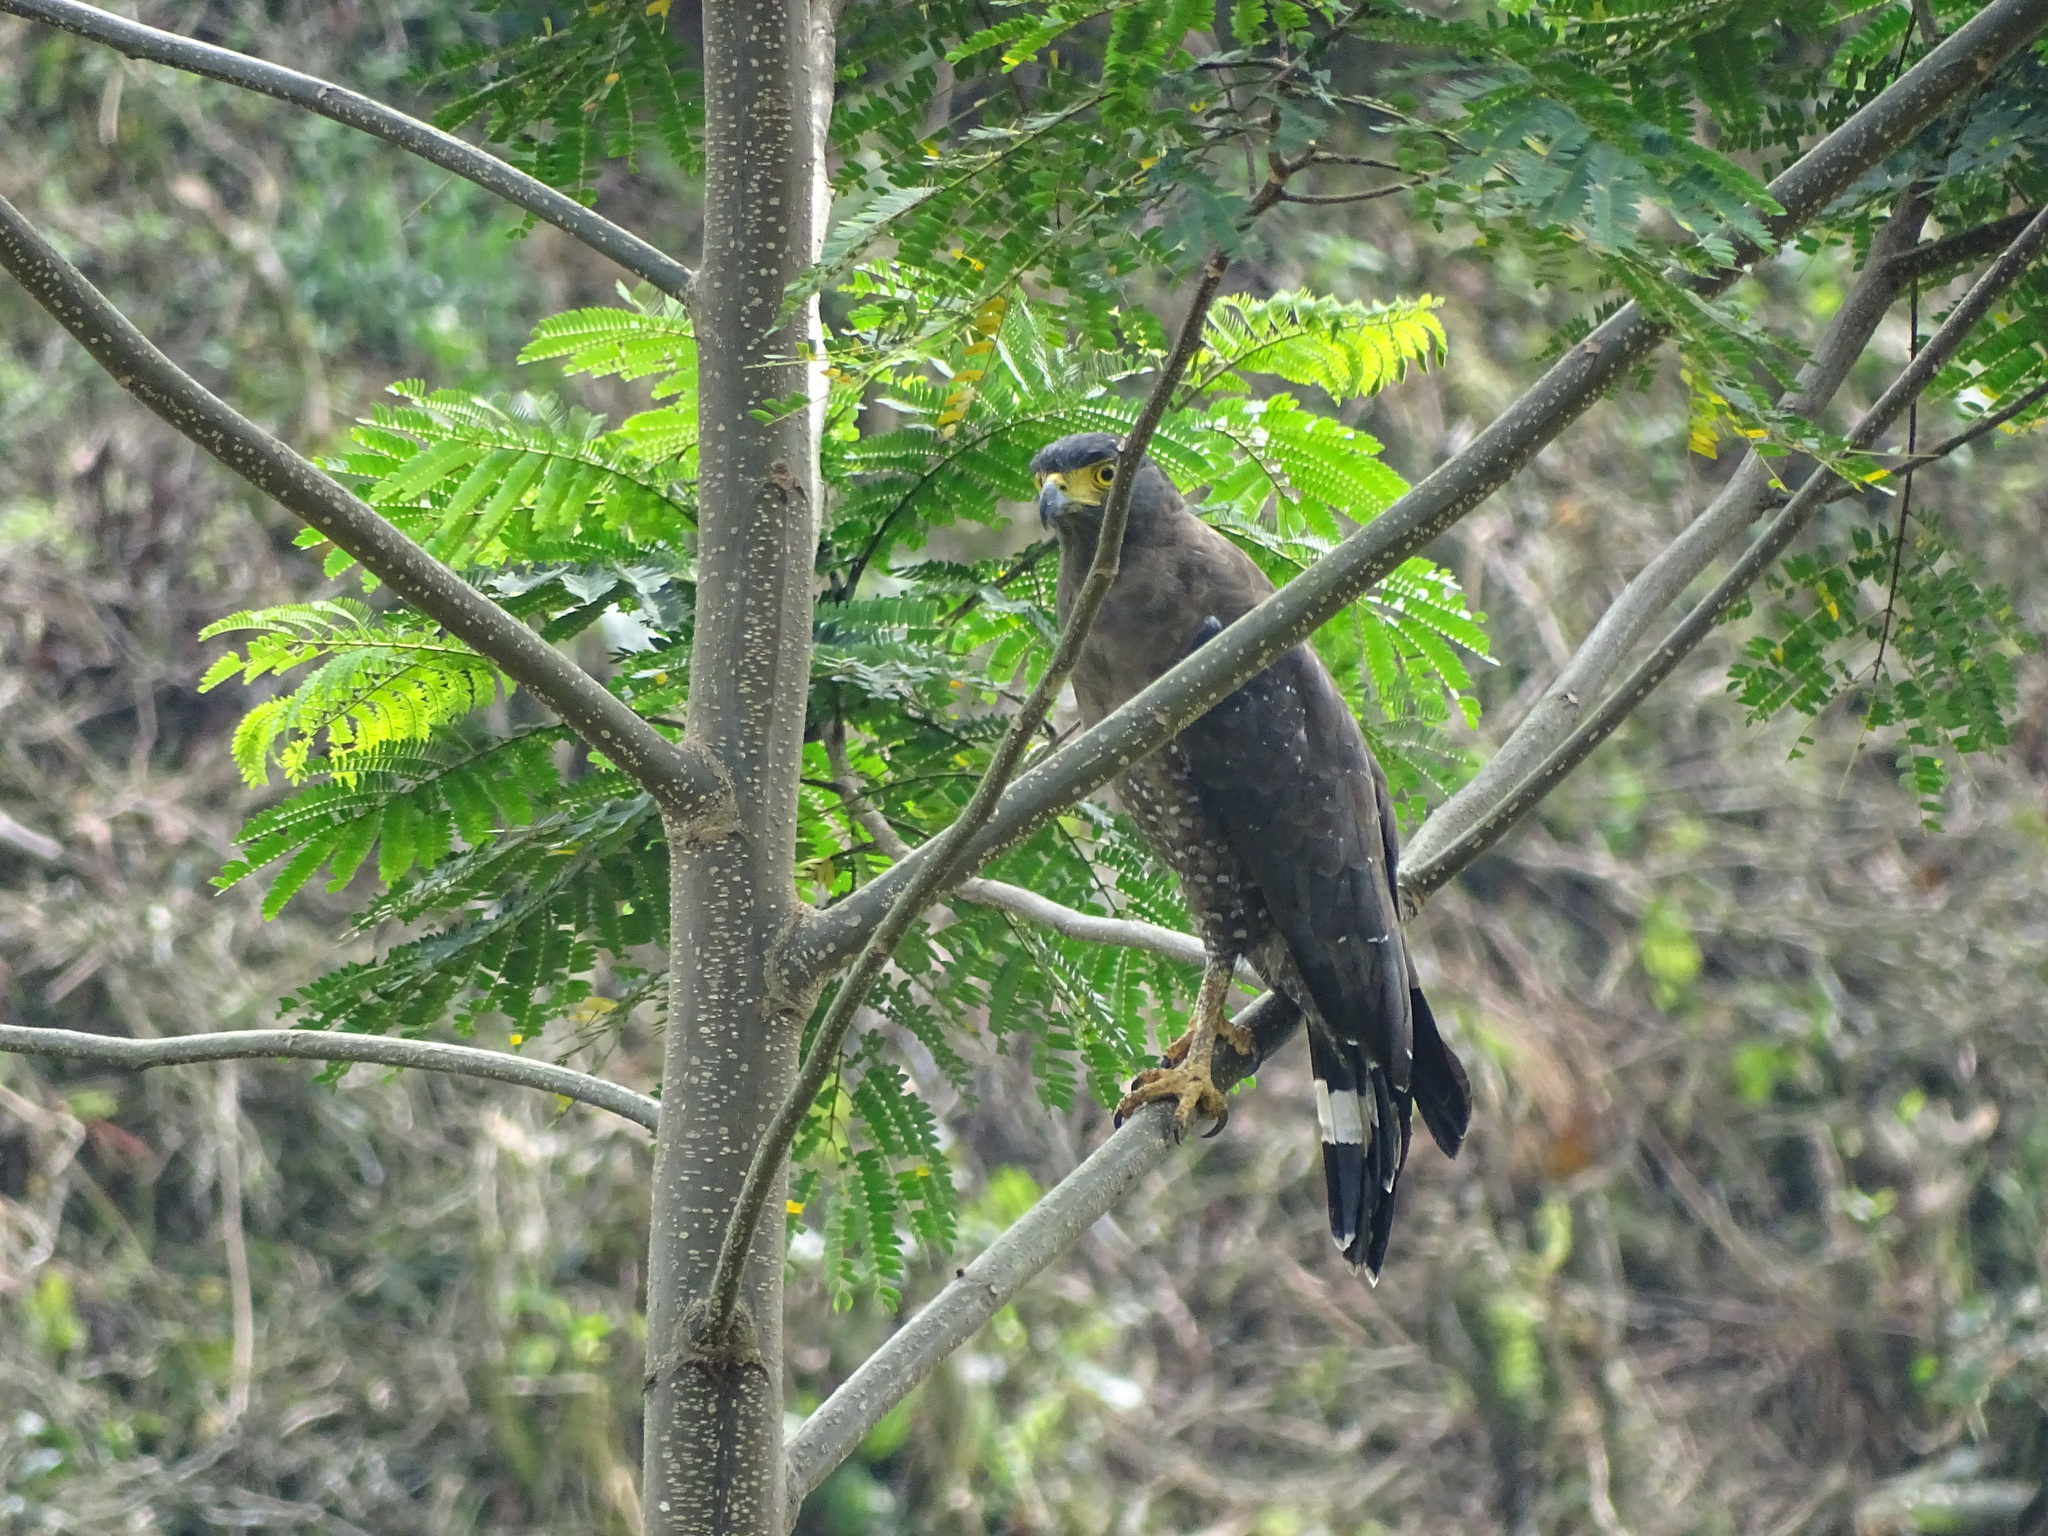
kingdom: Animalia
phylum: Chordata
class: Aves
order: Accipitriformes
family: Accipitridae
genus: Spilornis
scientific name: Spilornis cheela
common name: Crested serpent eagle
